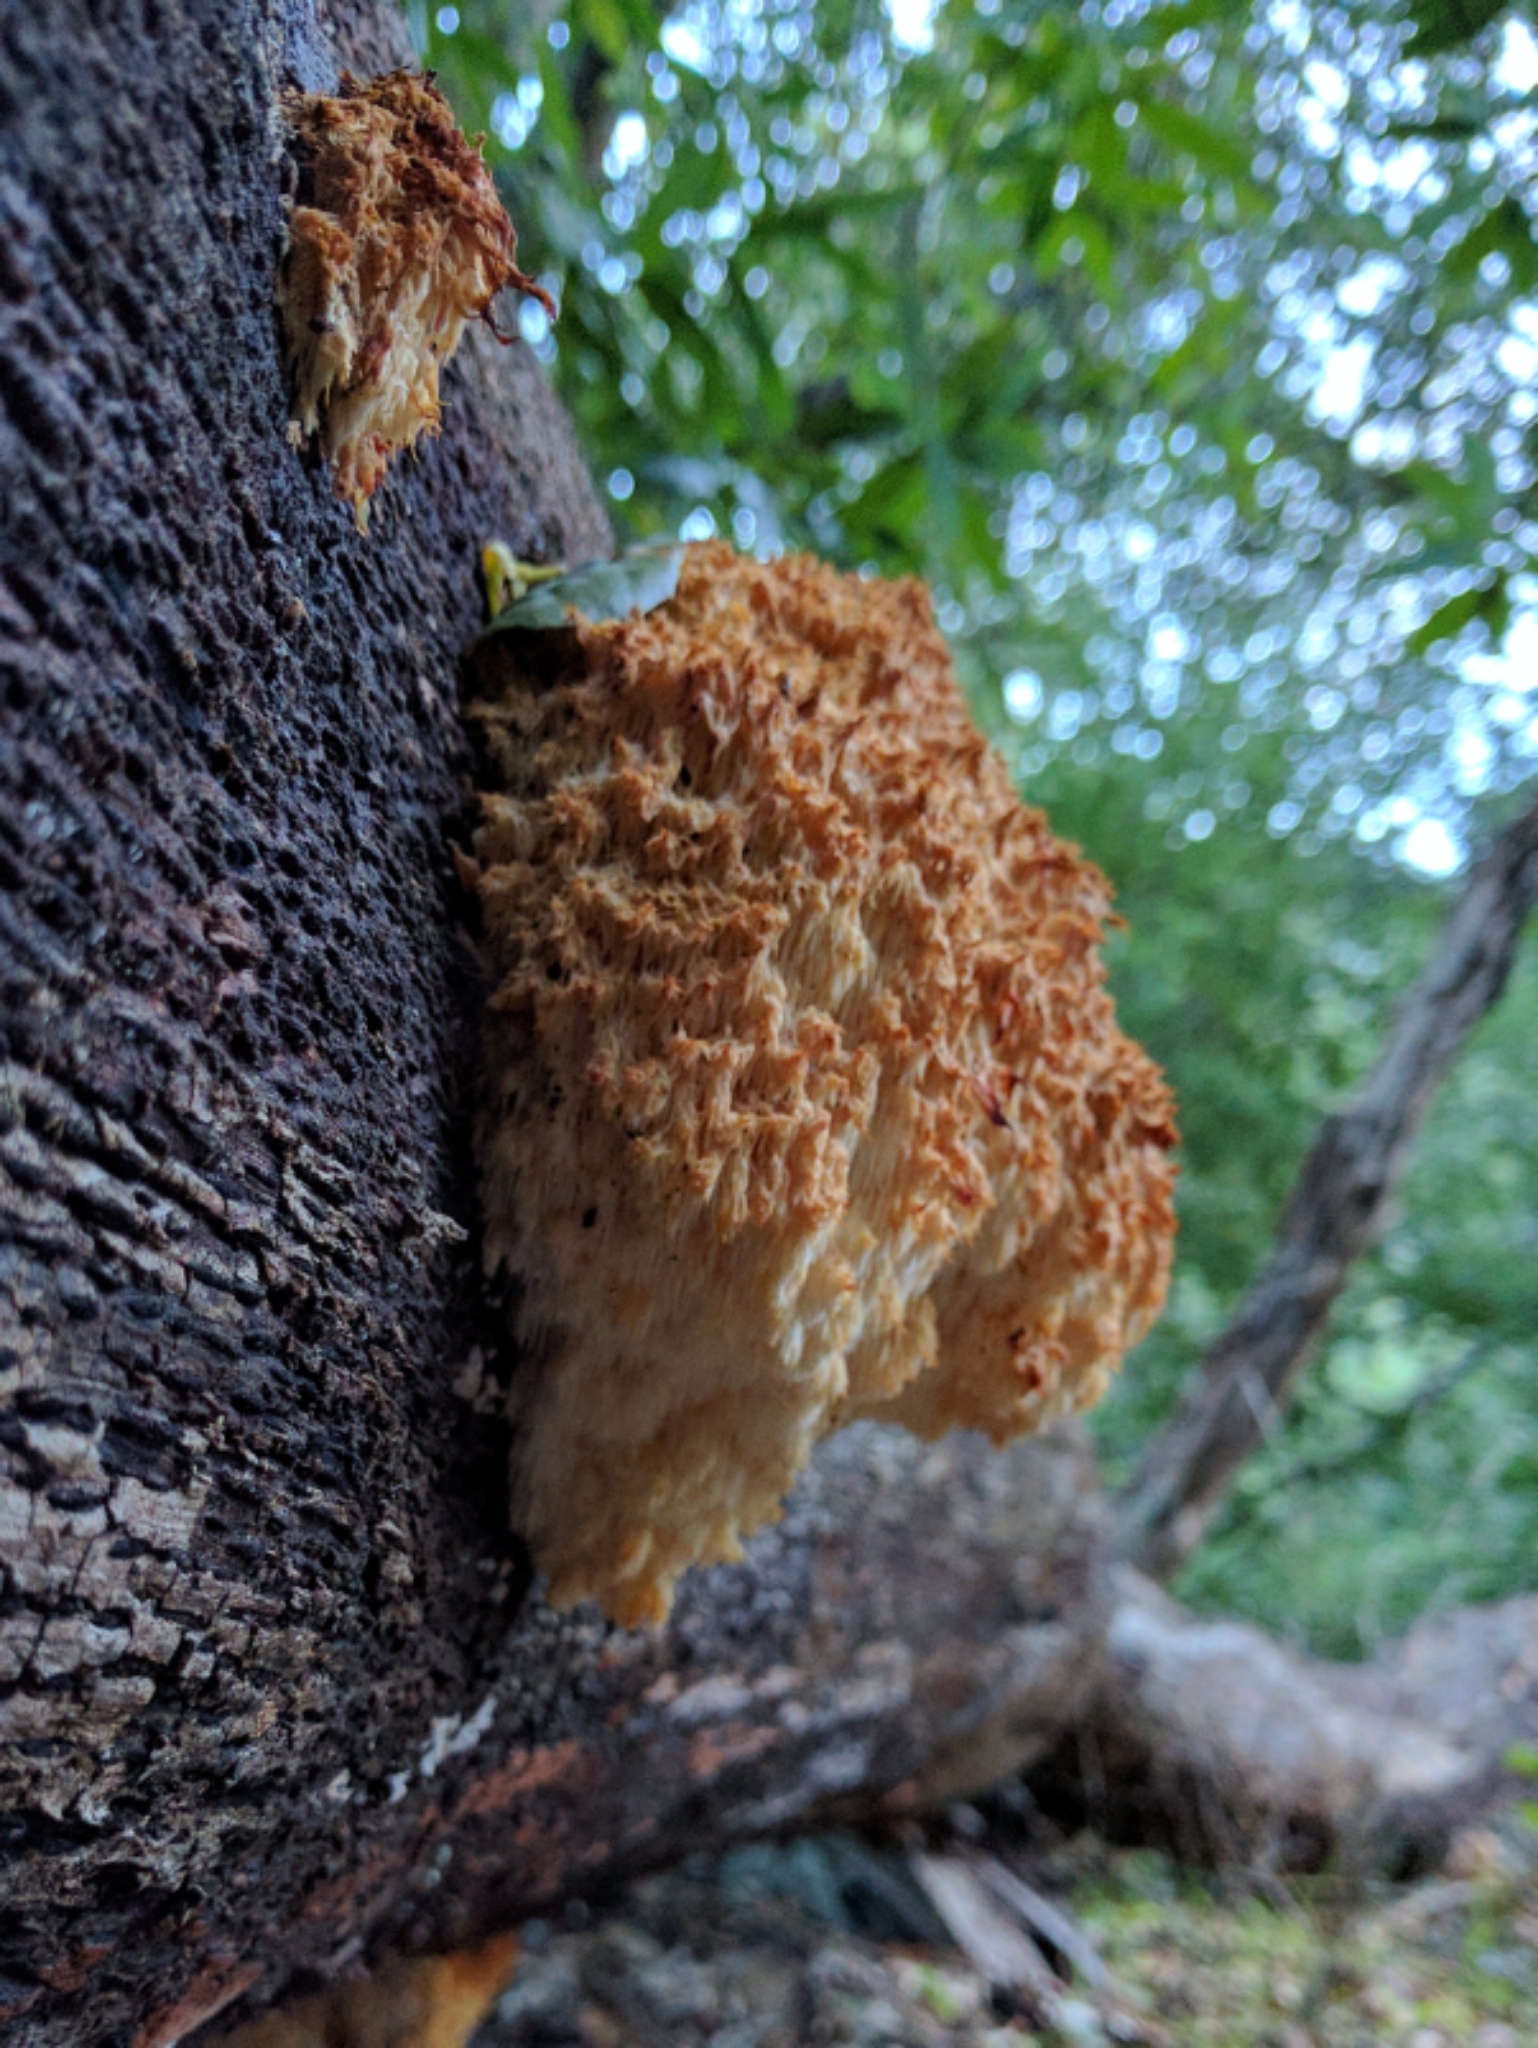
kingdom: Fungi
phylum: Basidiomycota
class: Agaricomycetes
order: Russulales
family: Hericiaceae
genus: Hericium
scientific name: Hericium coralloides
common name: Coral tooth
